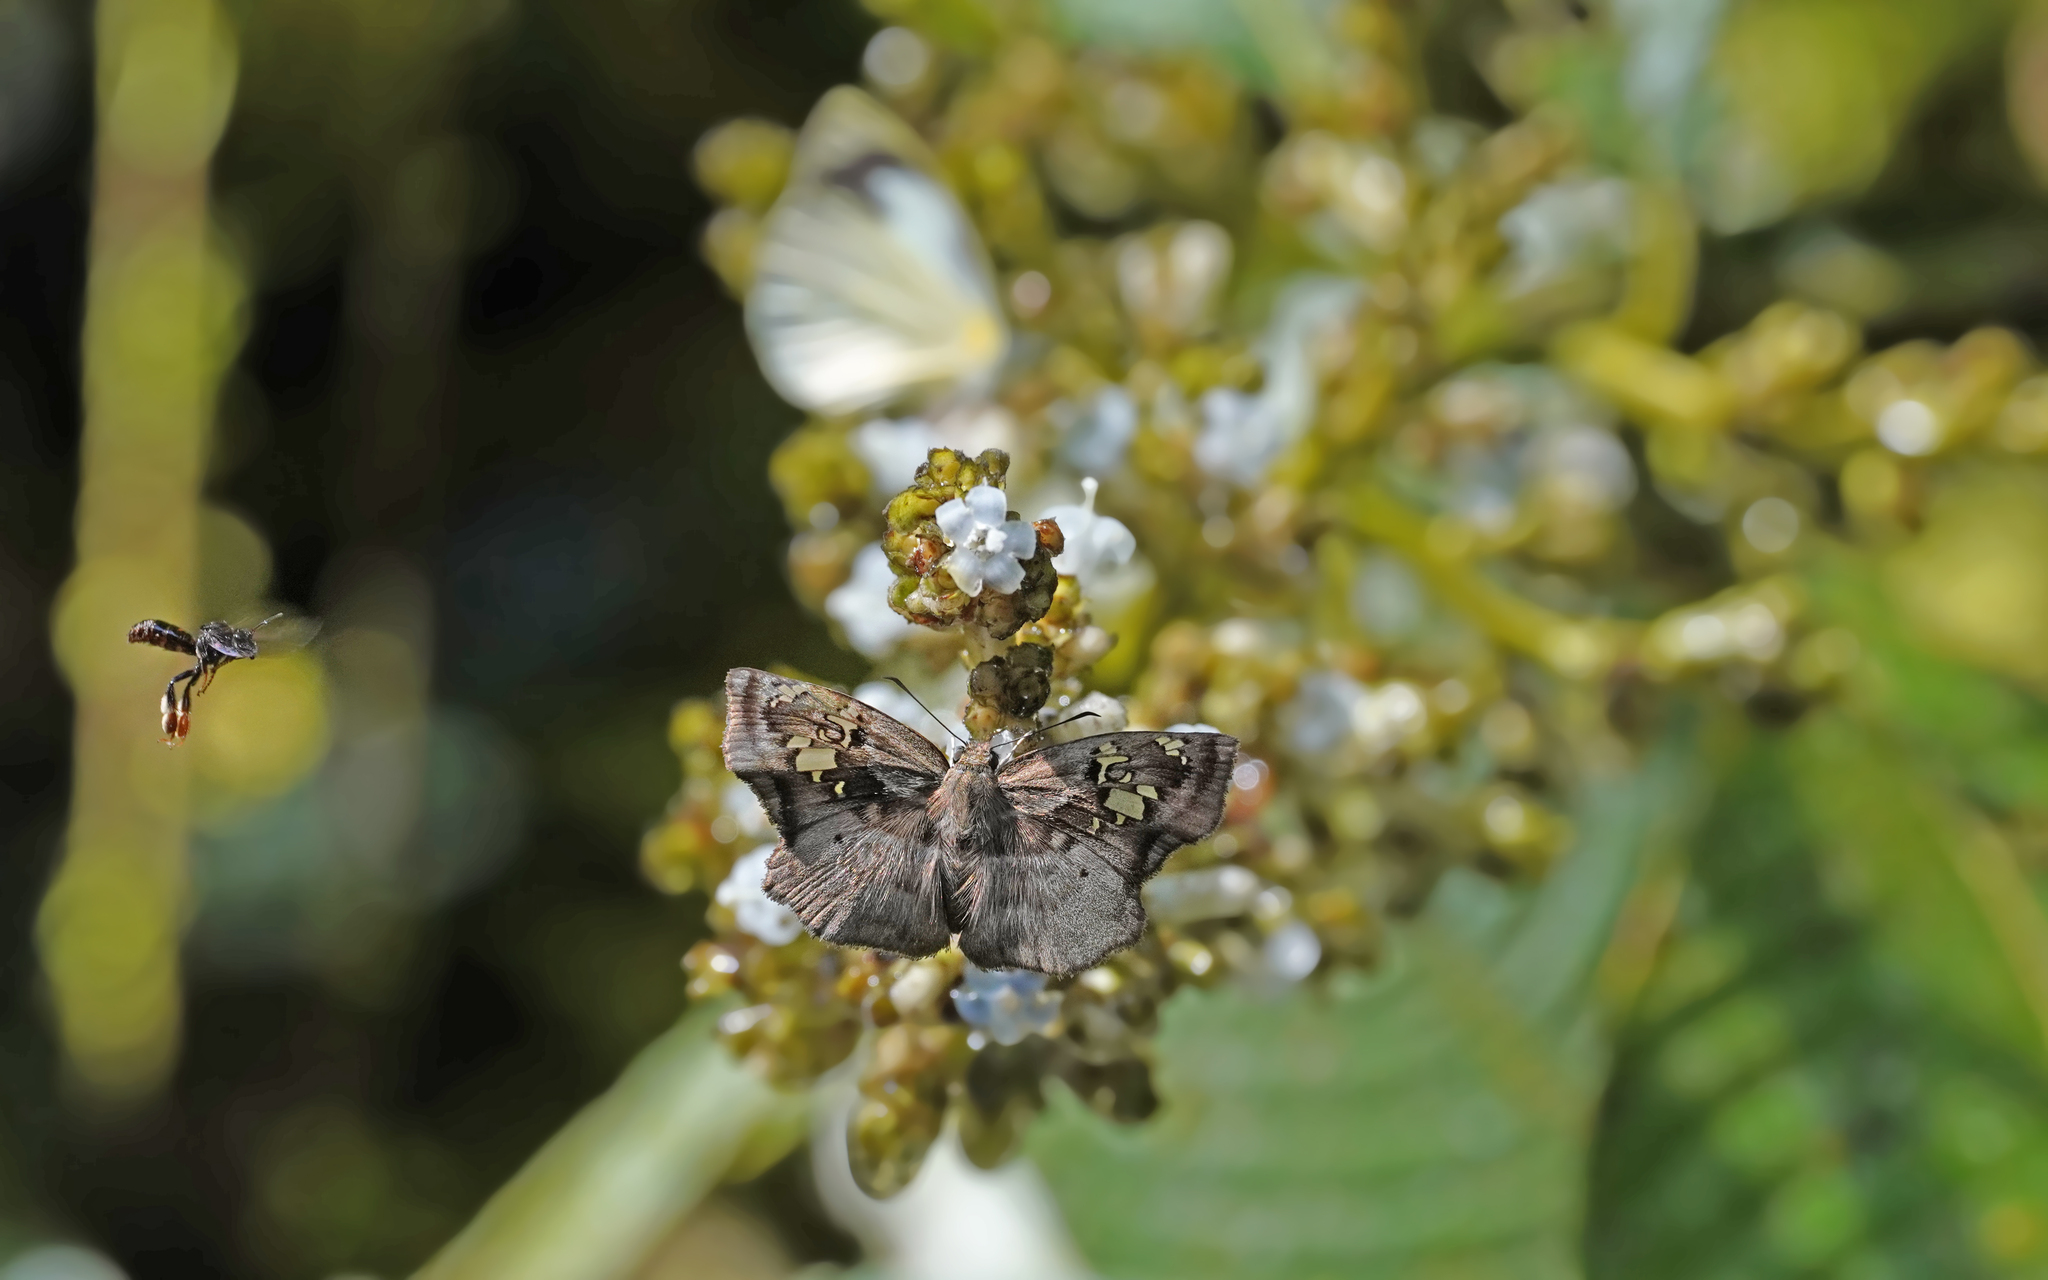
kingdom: Animalia
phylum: Arthropoda
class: Insecta
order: Lepidoptera
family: Hesperiidae
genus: Quadrus
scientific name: Quadrus lugubris
